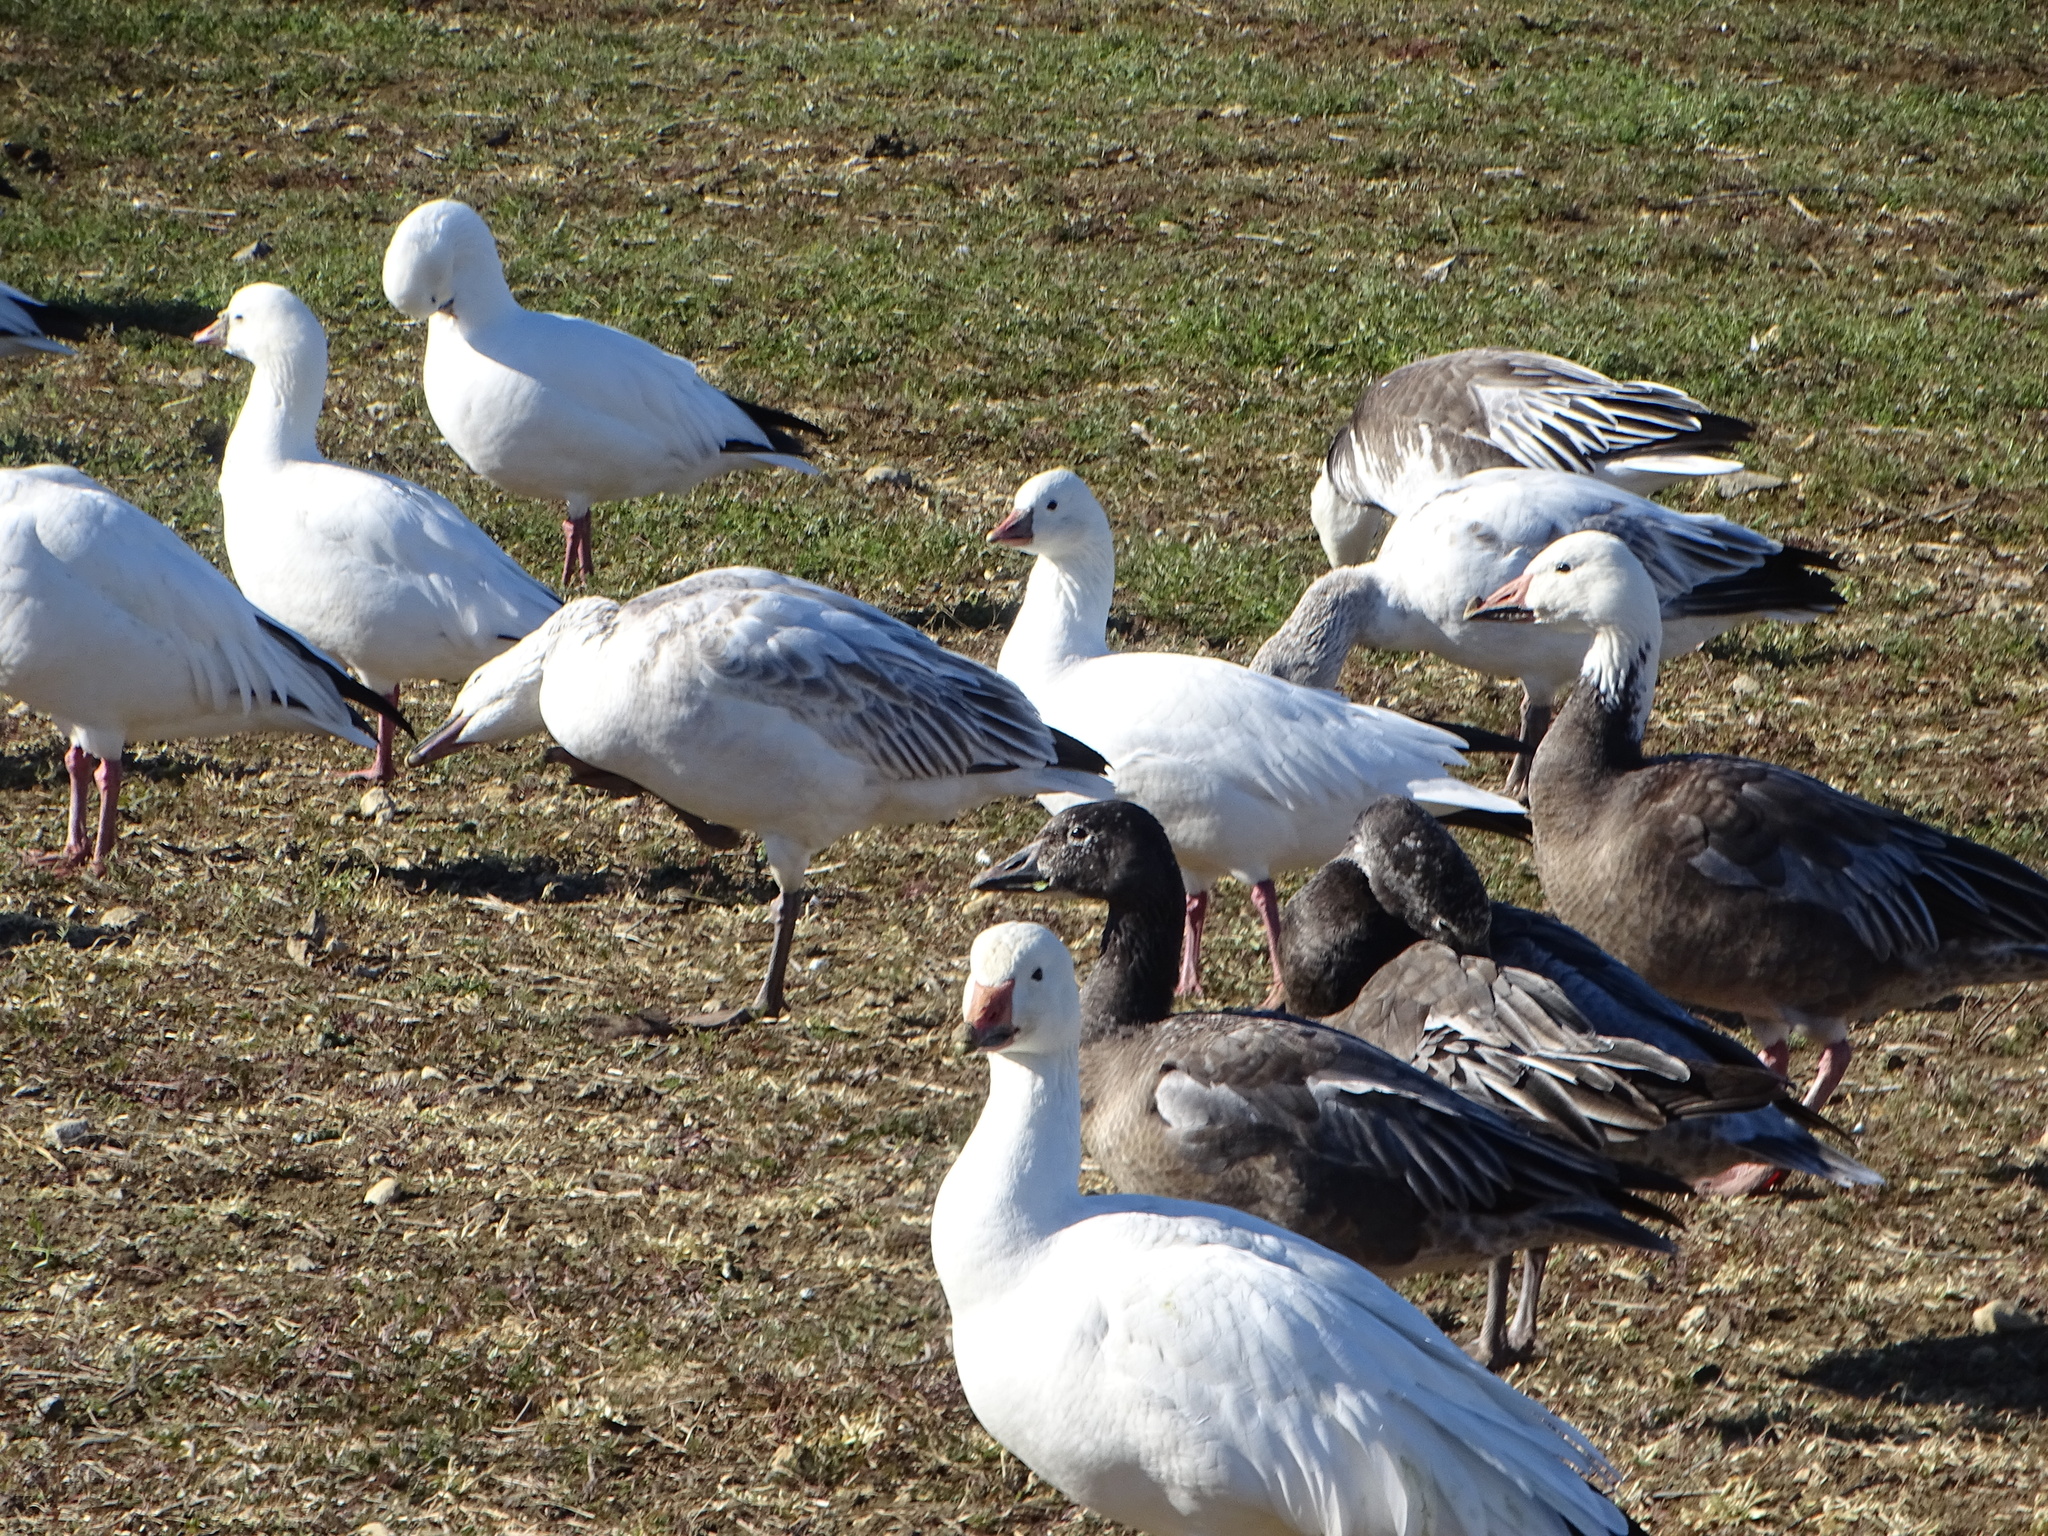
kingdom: Animalia
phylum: Chordata
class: Aves
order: Anseriformes
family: Anatidae
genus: Anser
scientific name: Anser caerulescens
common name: Snow goose
